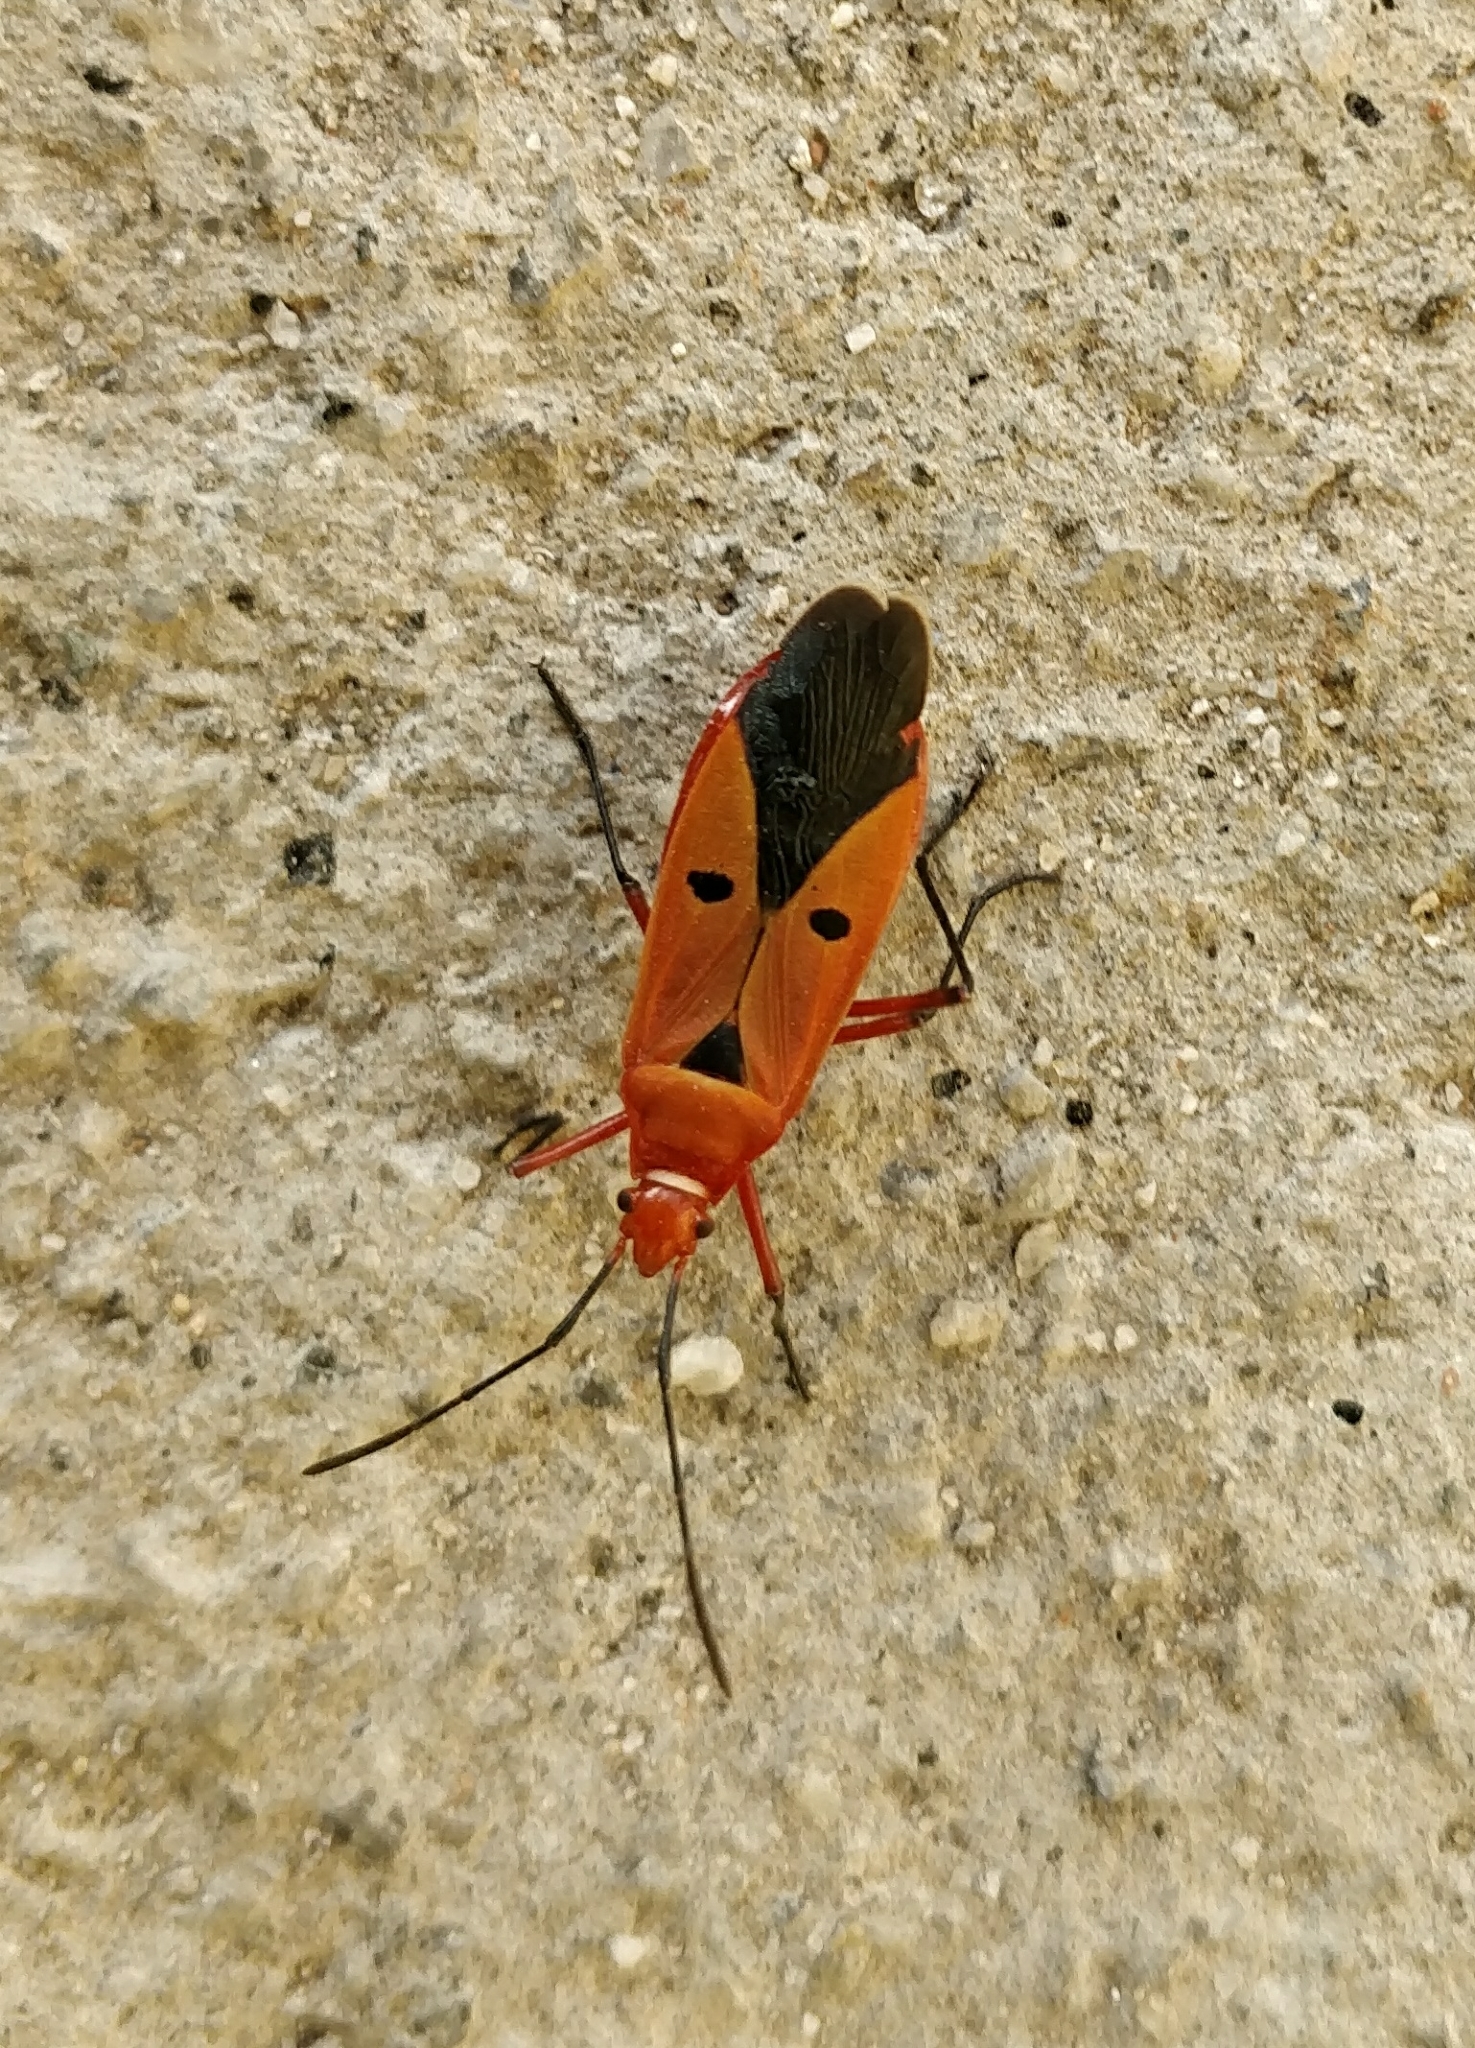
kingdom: Animalia
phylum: Arthropoda
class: Insecta
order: Hemiptera
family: Pyrrhocoridae
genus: Dysdercus
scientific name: Dysdercus koenigii
